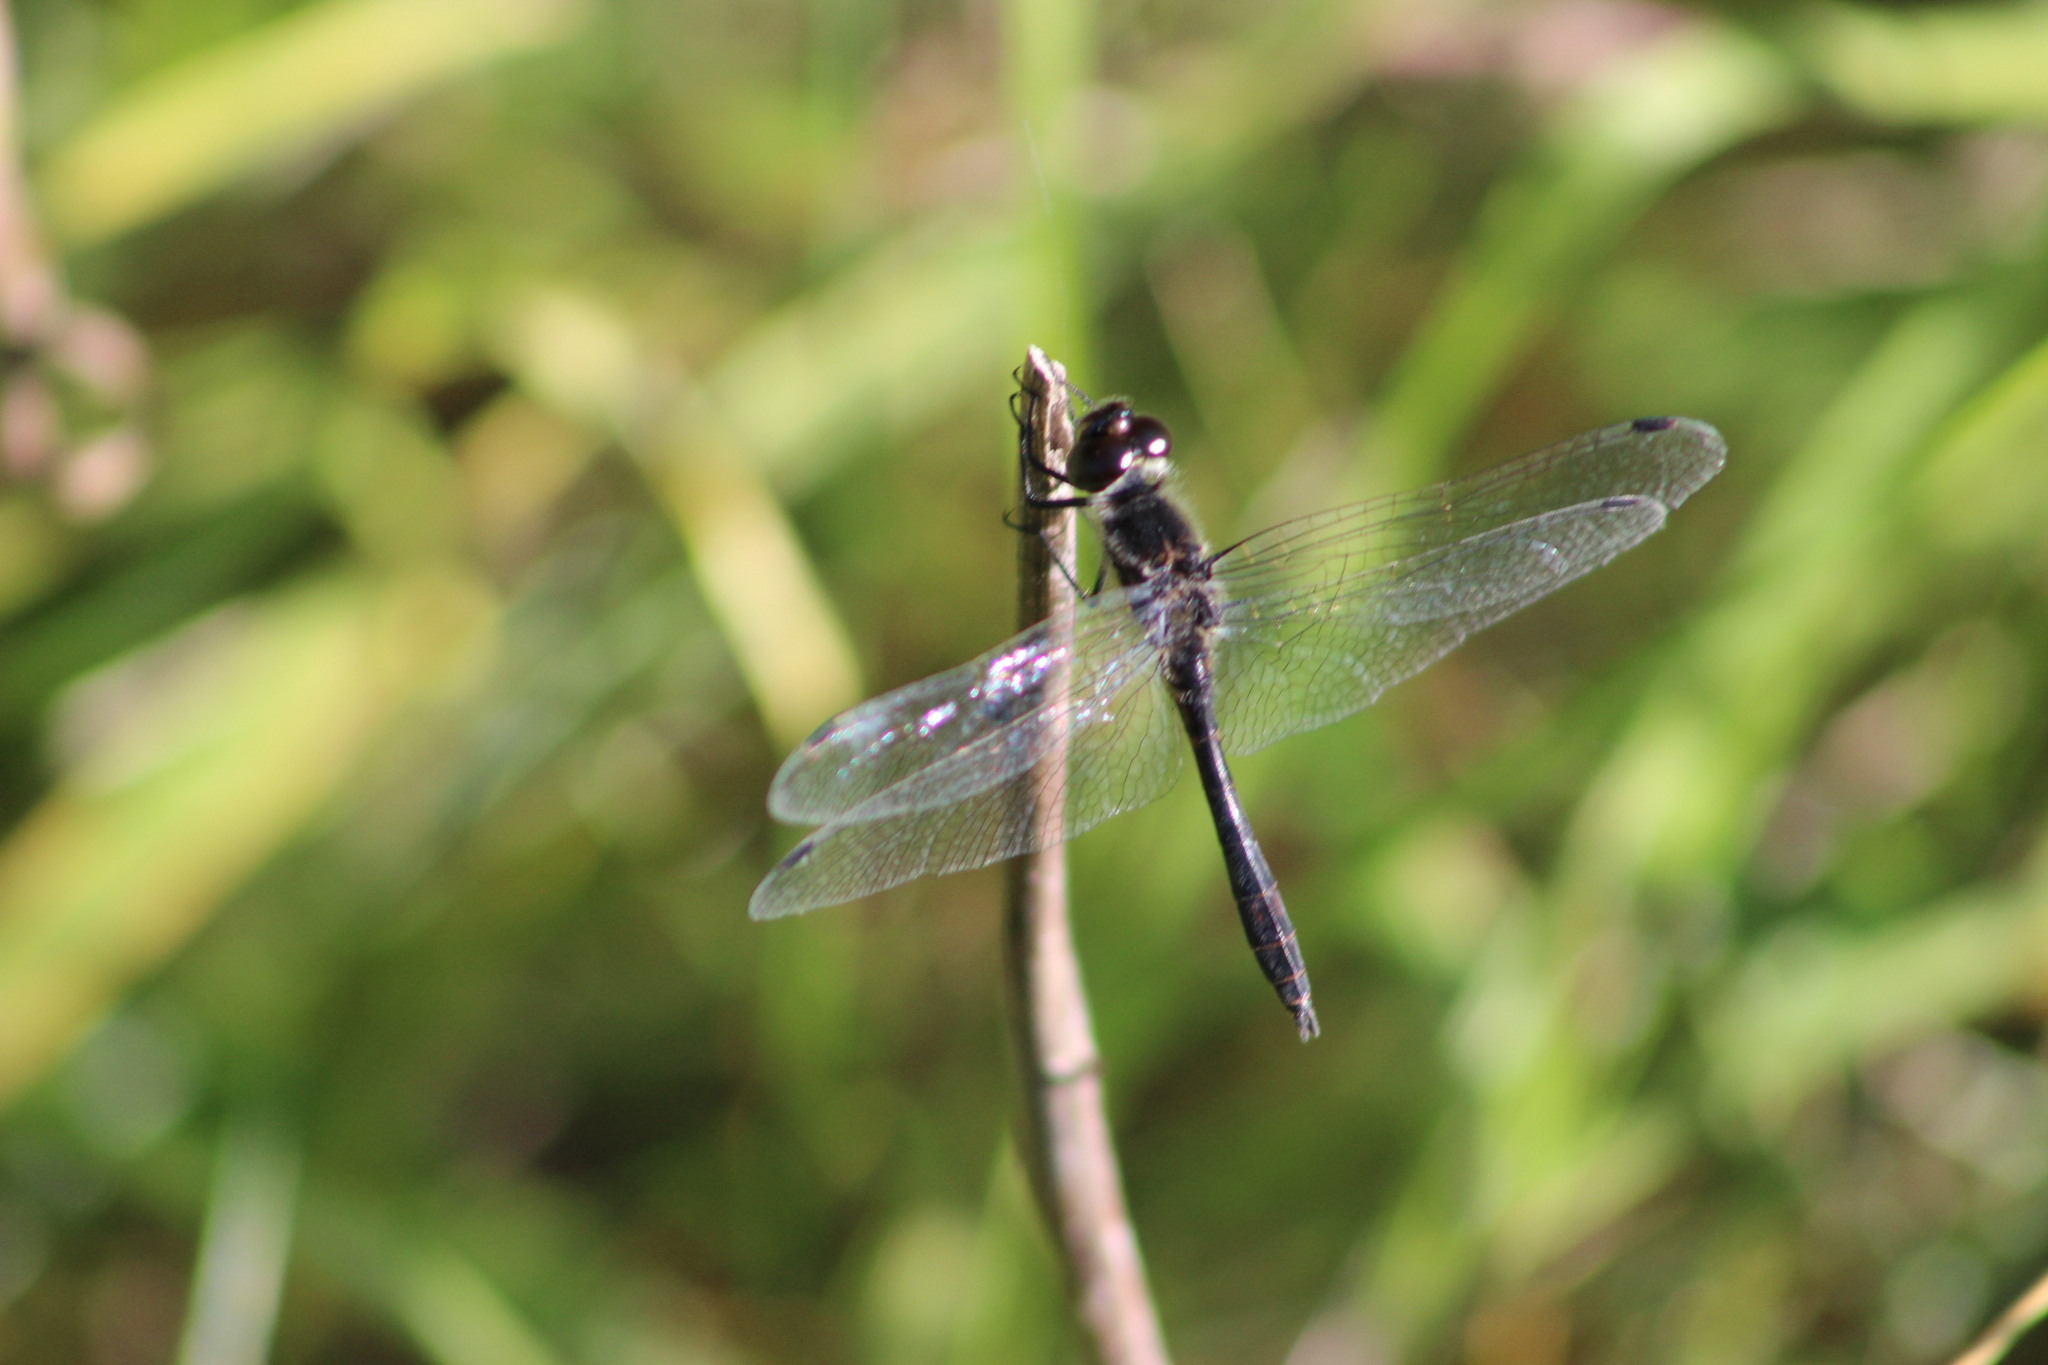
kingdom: Animalia
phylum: Arthropoda
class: Insecta
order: Odonata
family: Libellulidae
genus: Sympetrum
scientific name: Sympetrum danae
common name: Black darter
